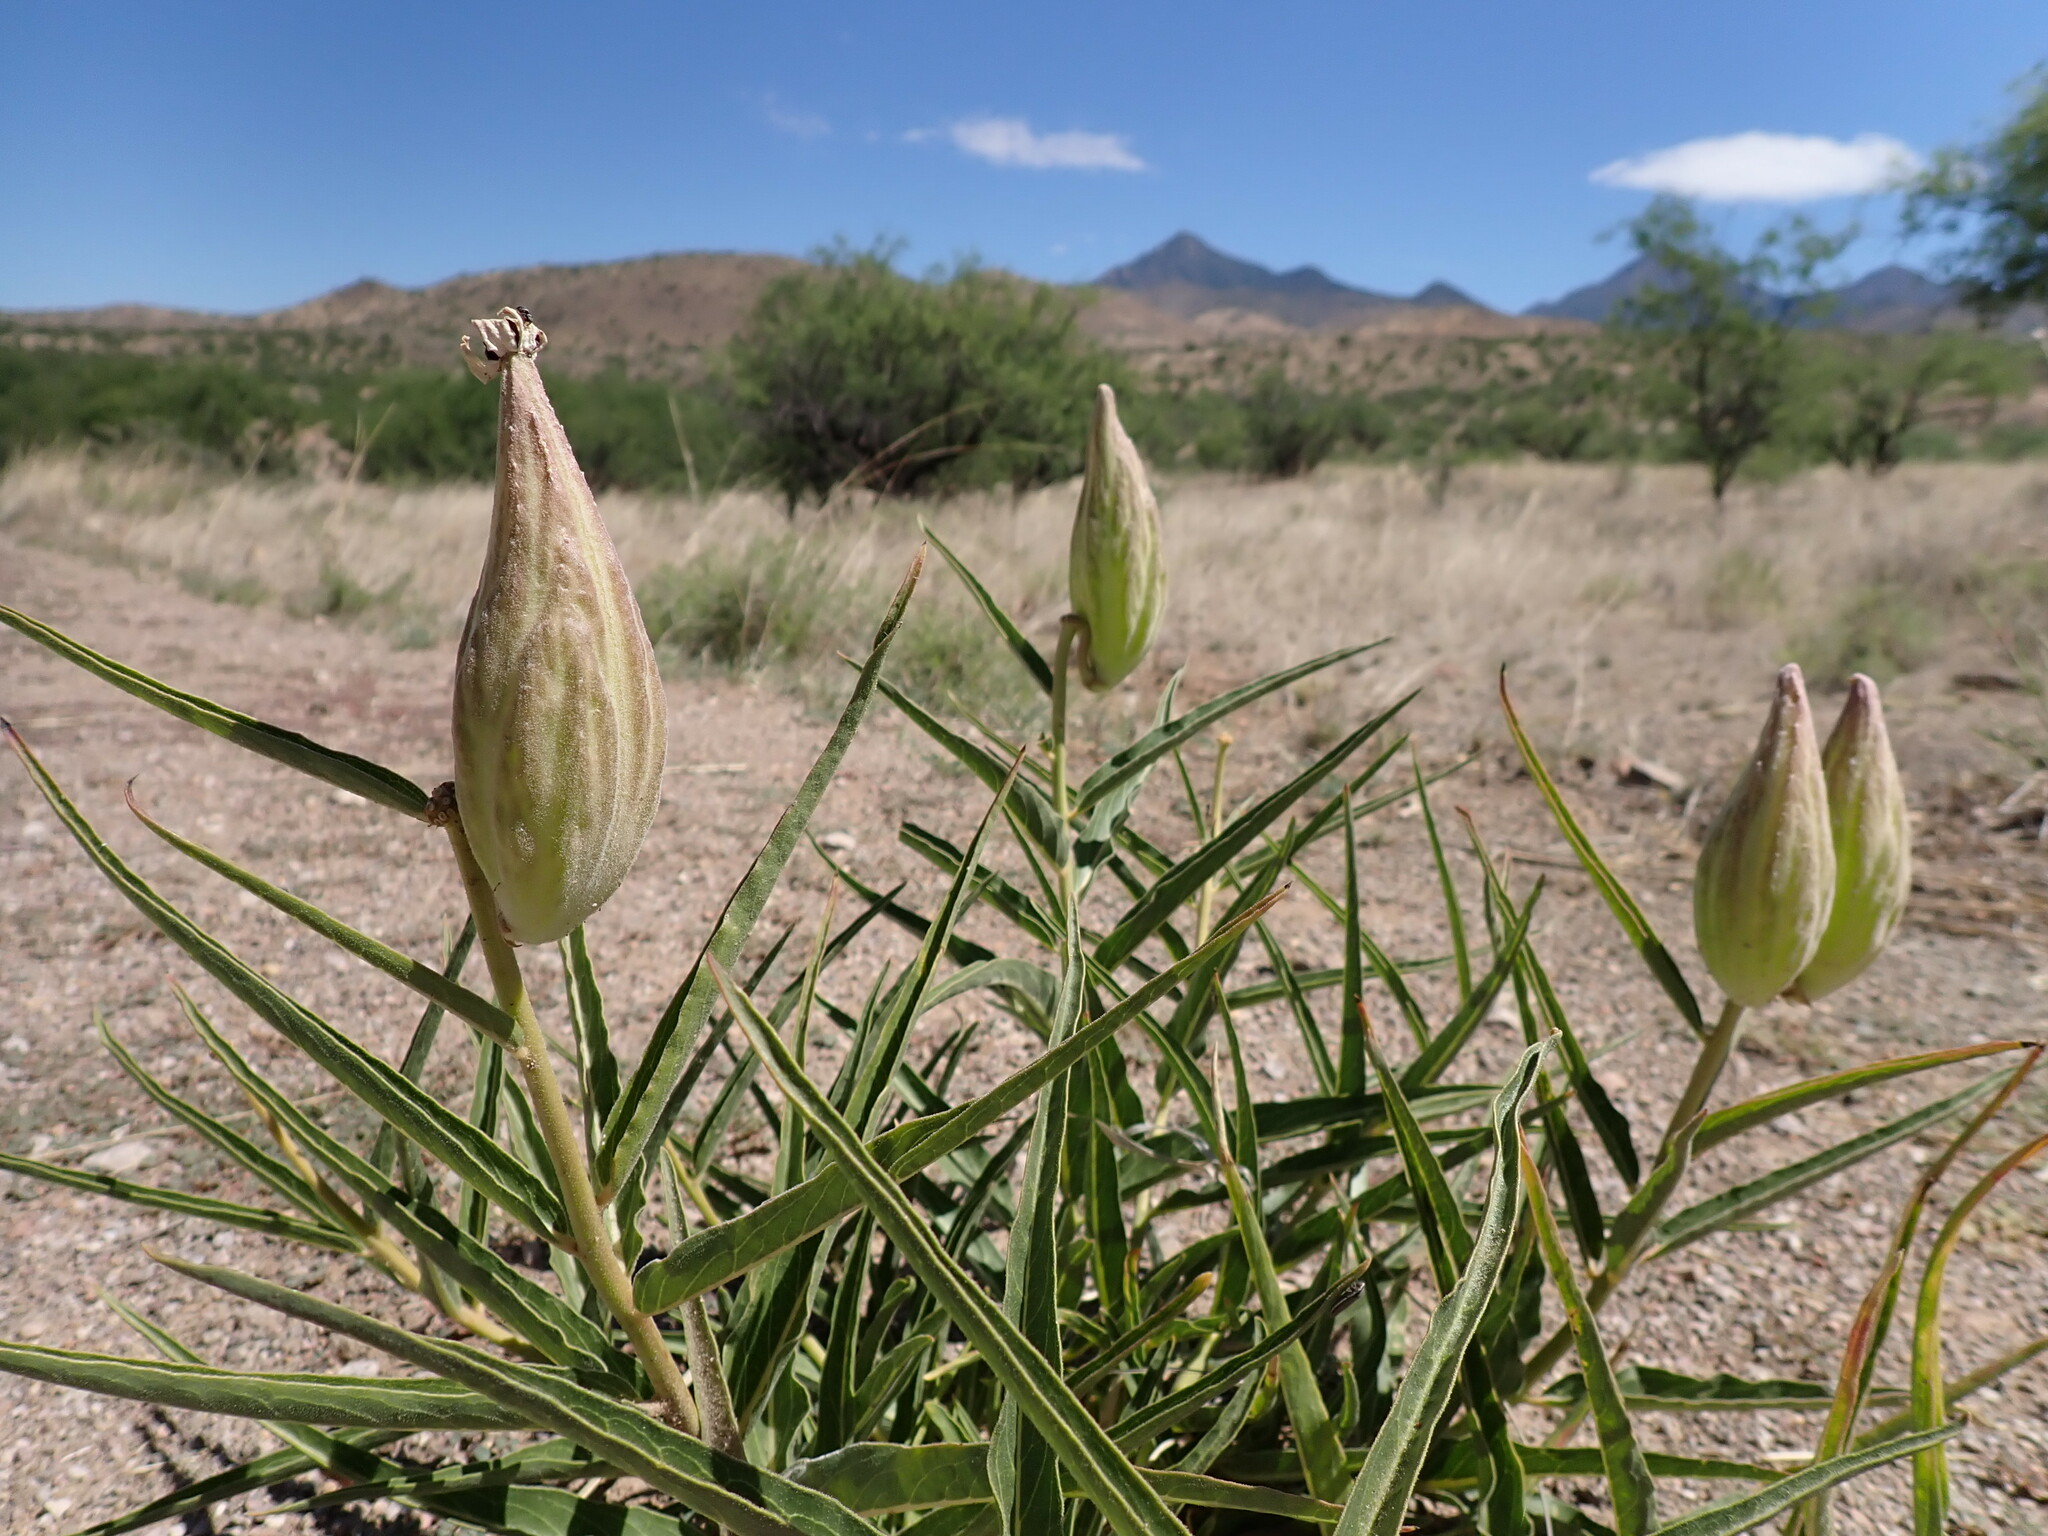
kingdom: Plantae
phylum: Tracheophyta
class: Magnoliopsida
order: Gentianales
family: Apocynaceae
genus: Asclepias
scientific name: Asclepias asperula
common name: Antelope horns
